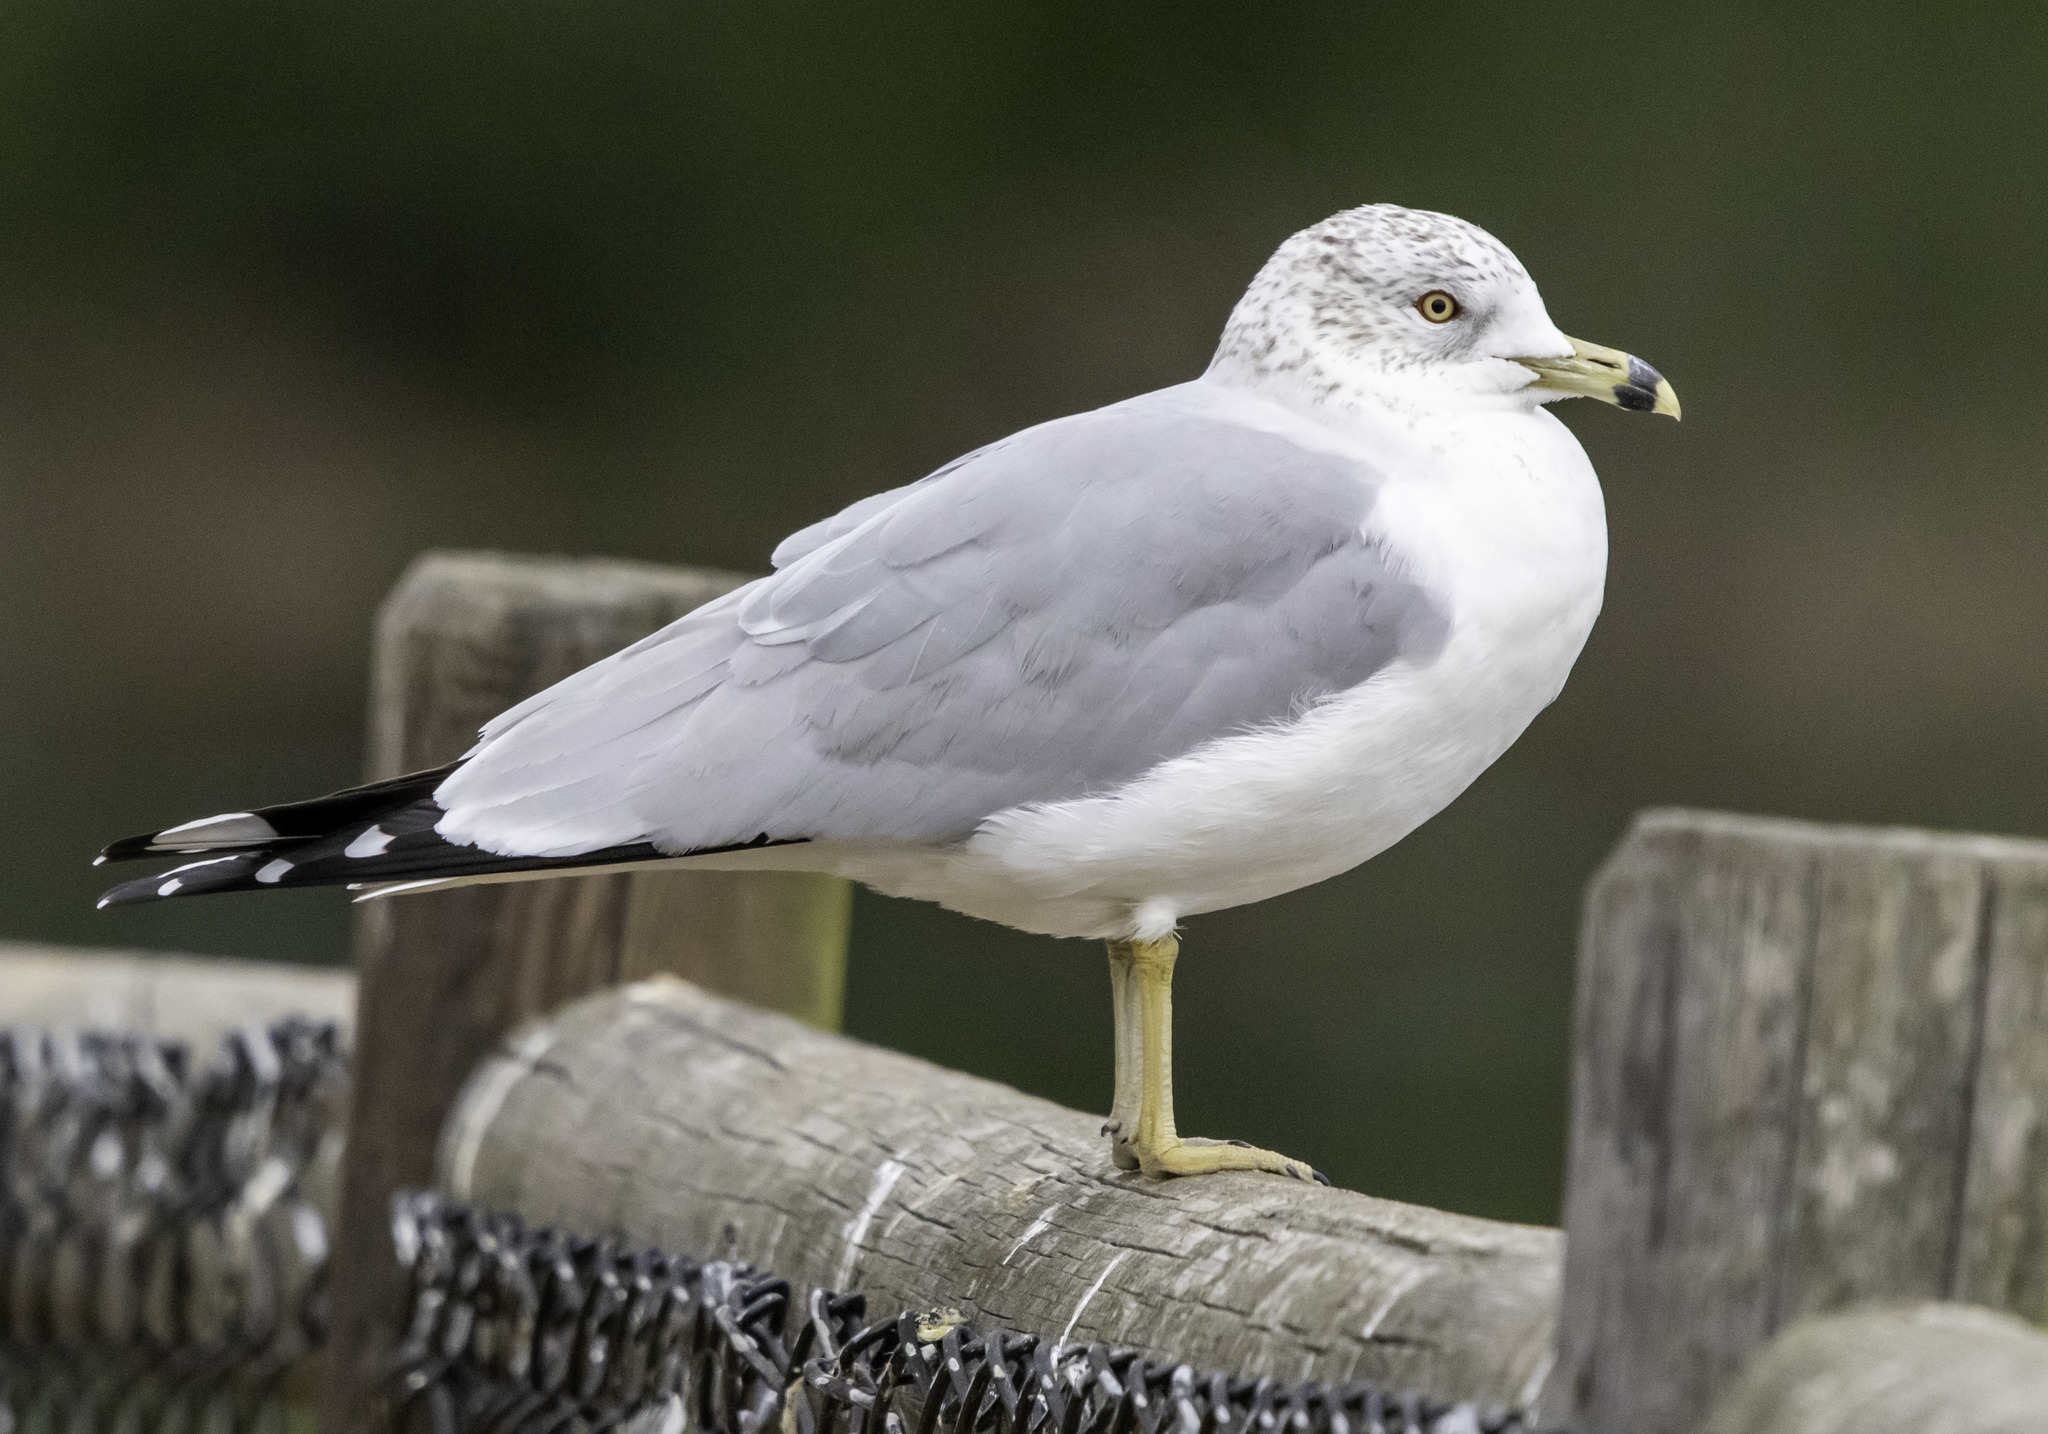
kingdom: Animalia
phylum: Chordata
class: Aves
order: Charadriiformes
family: Laridae
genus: Larus
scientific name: Larus delawarensis
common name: Ring-billed gull
